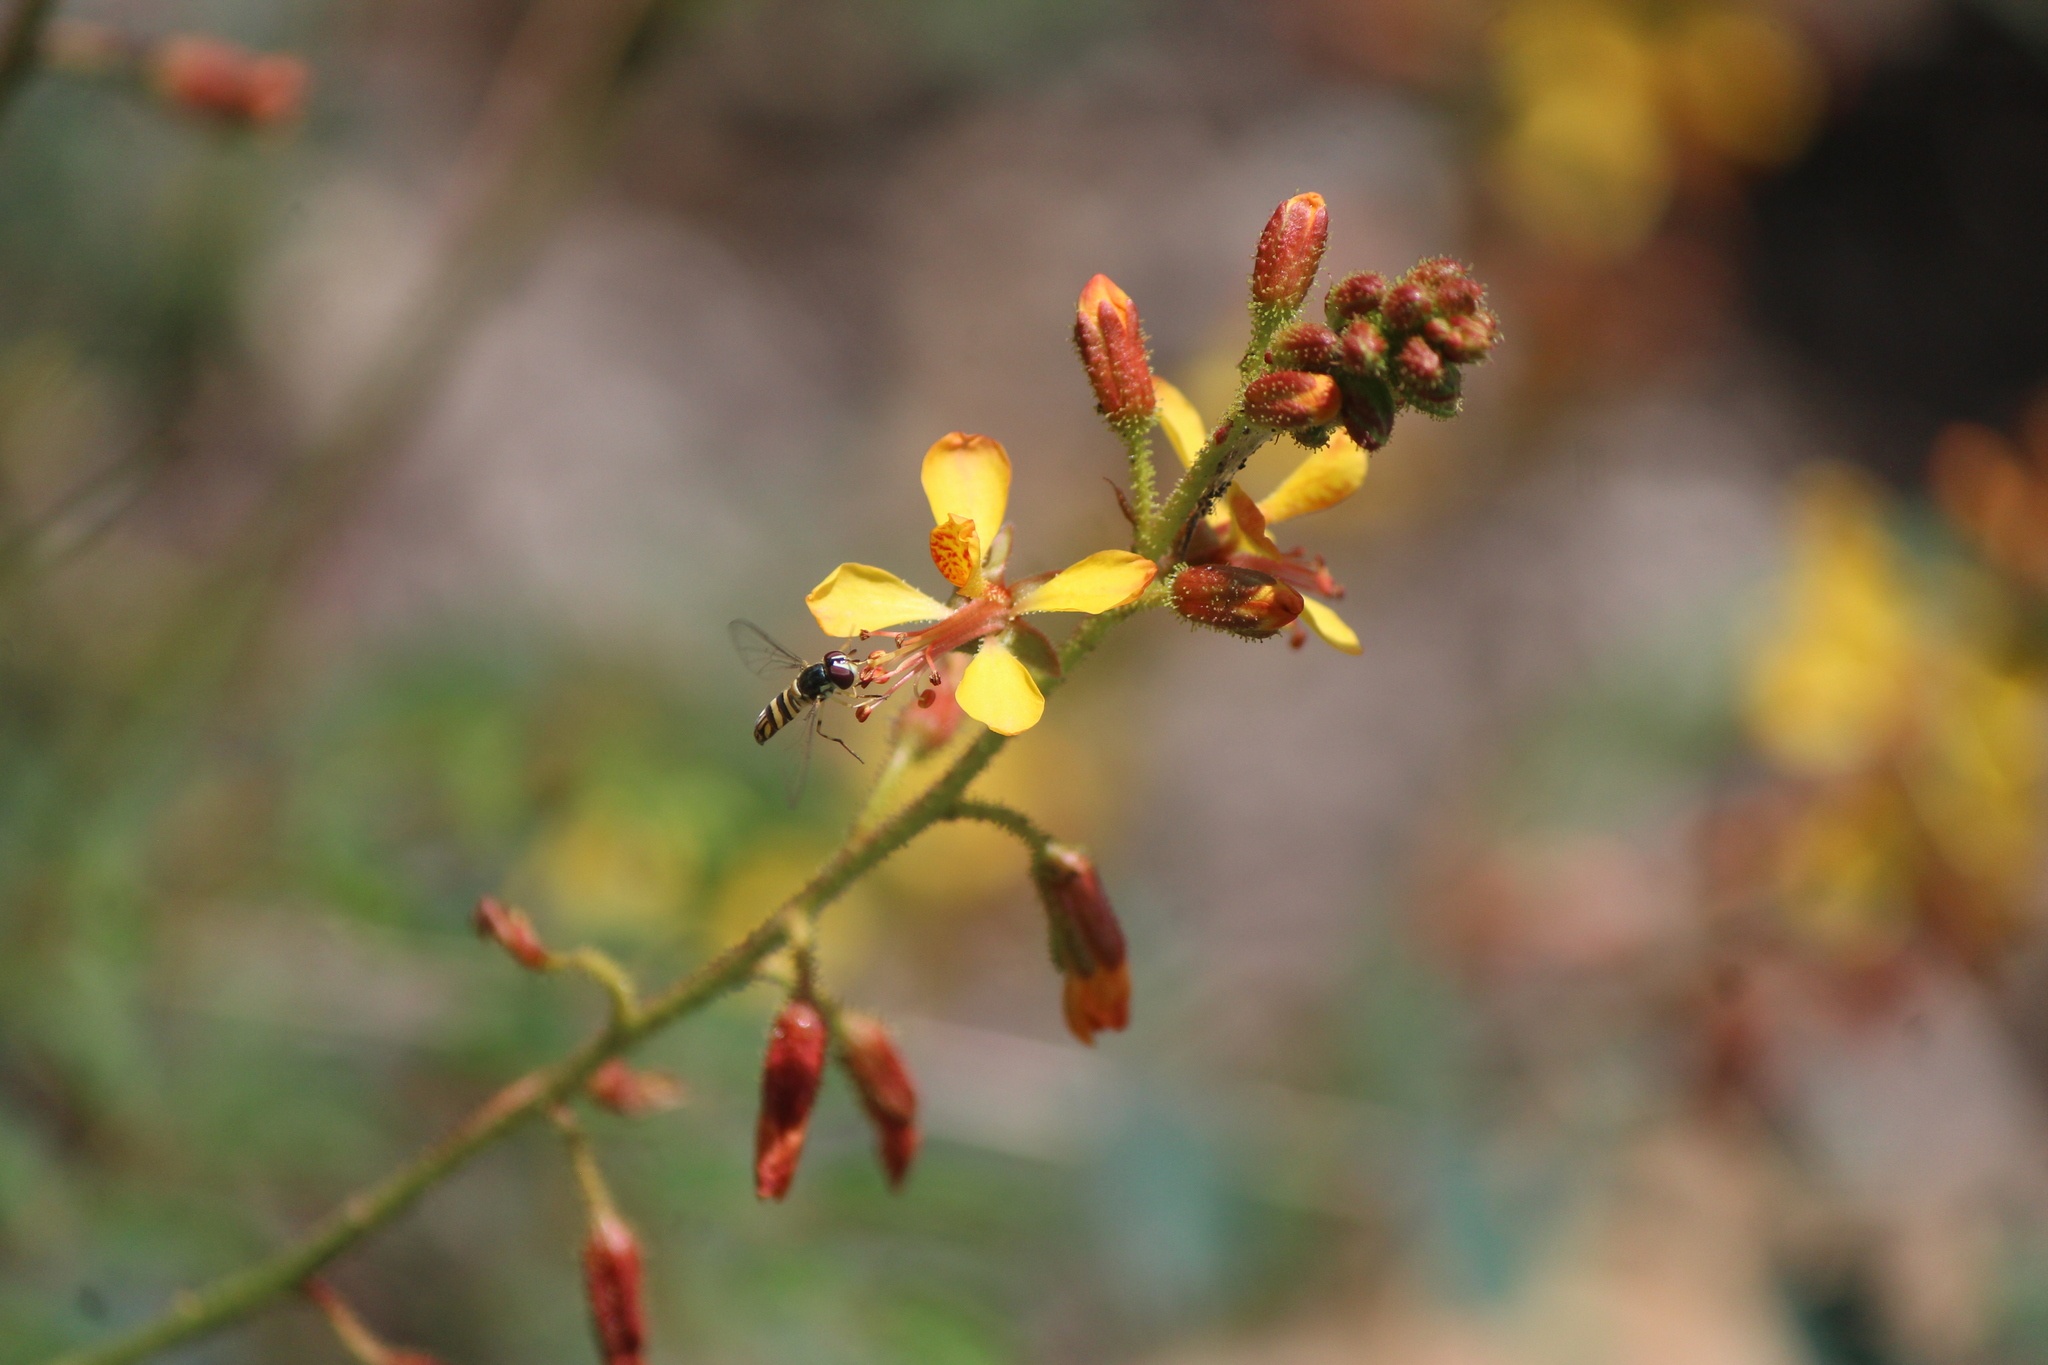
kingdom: Animalia
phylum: Arthropoda
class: Insecta
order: Diptera
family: Syrphidae
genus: Allograpta
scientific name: Allograpta obliqua
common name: Common oblique syrphid
